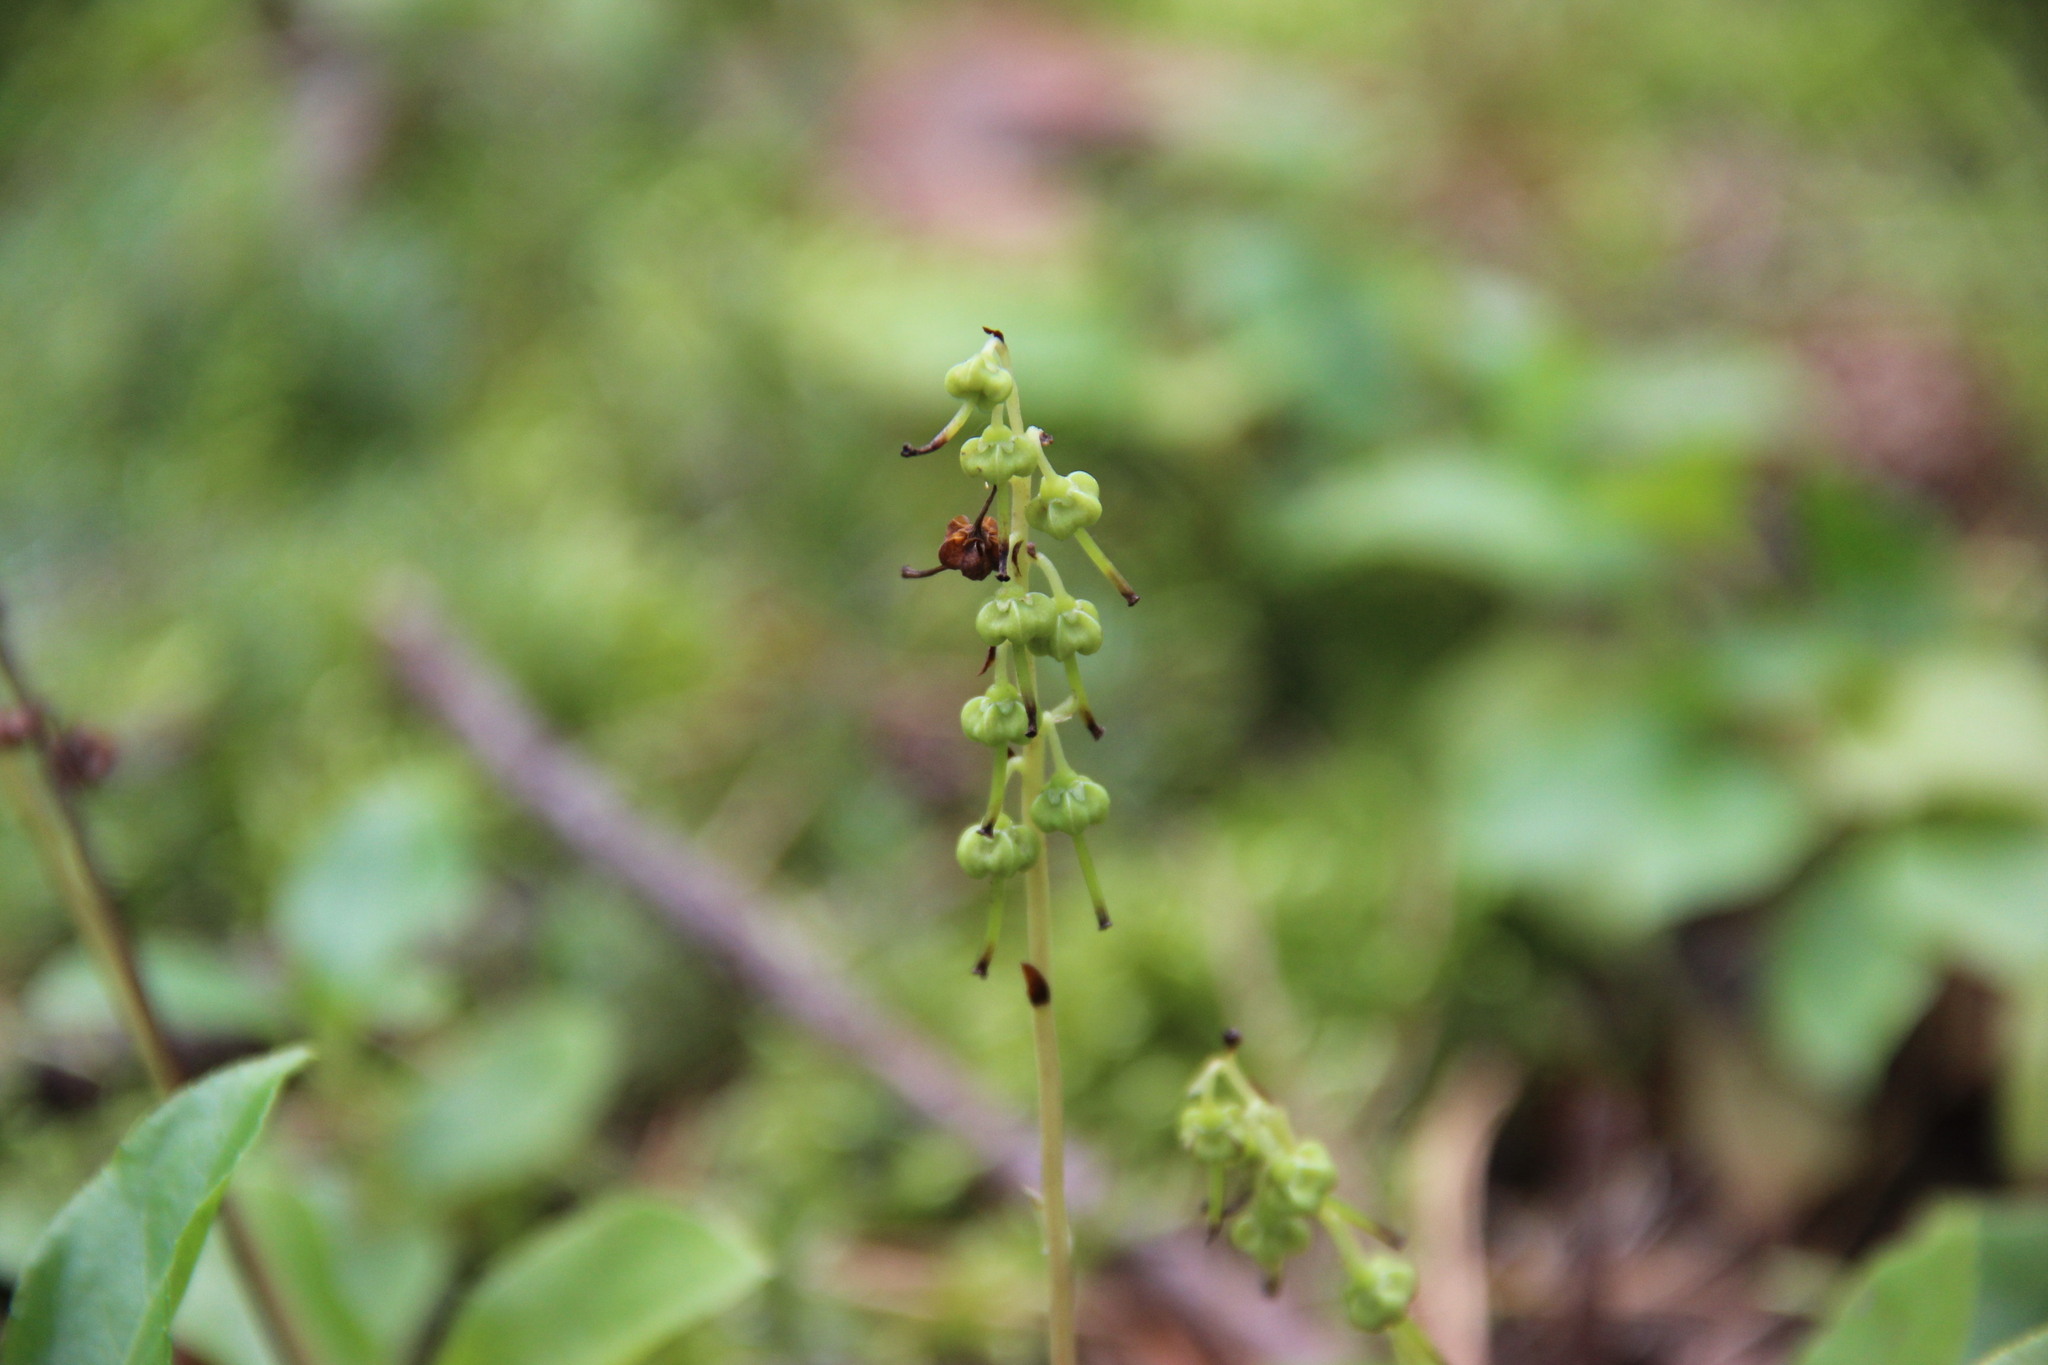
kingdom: Plantae
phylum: Tracheophyta
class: Magnoliopsida
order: Ericales
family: Ericaceae
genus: Orthilia
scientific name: Orthilia secunda
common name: One-sided orthilia
